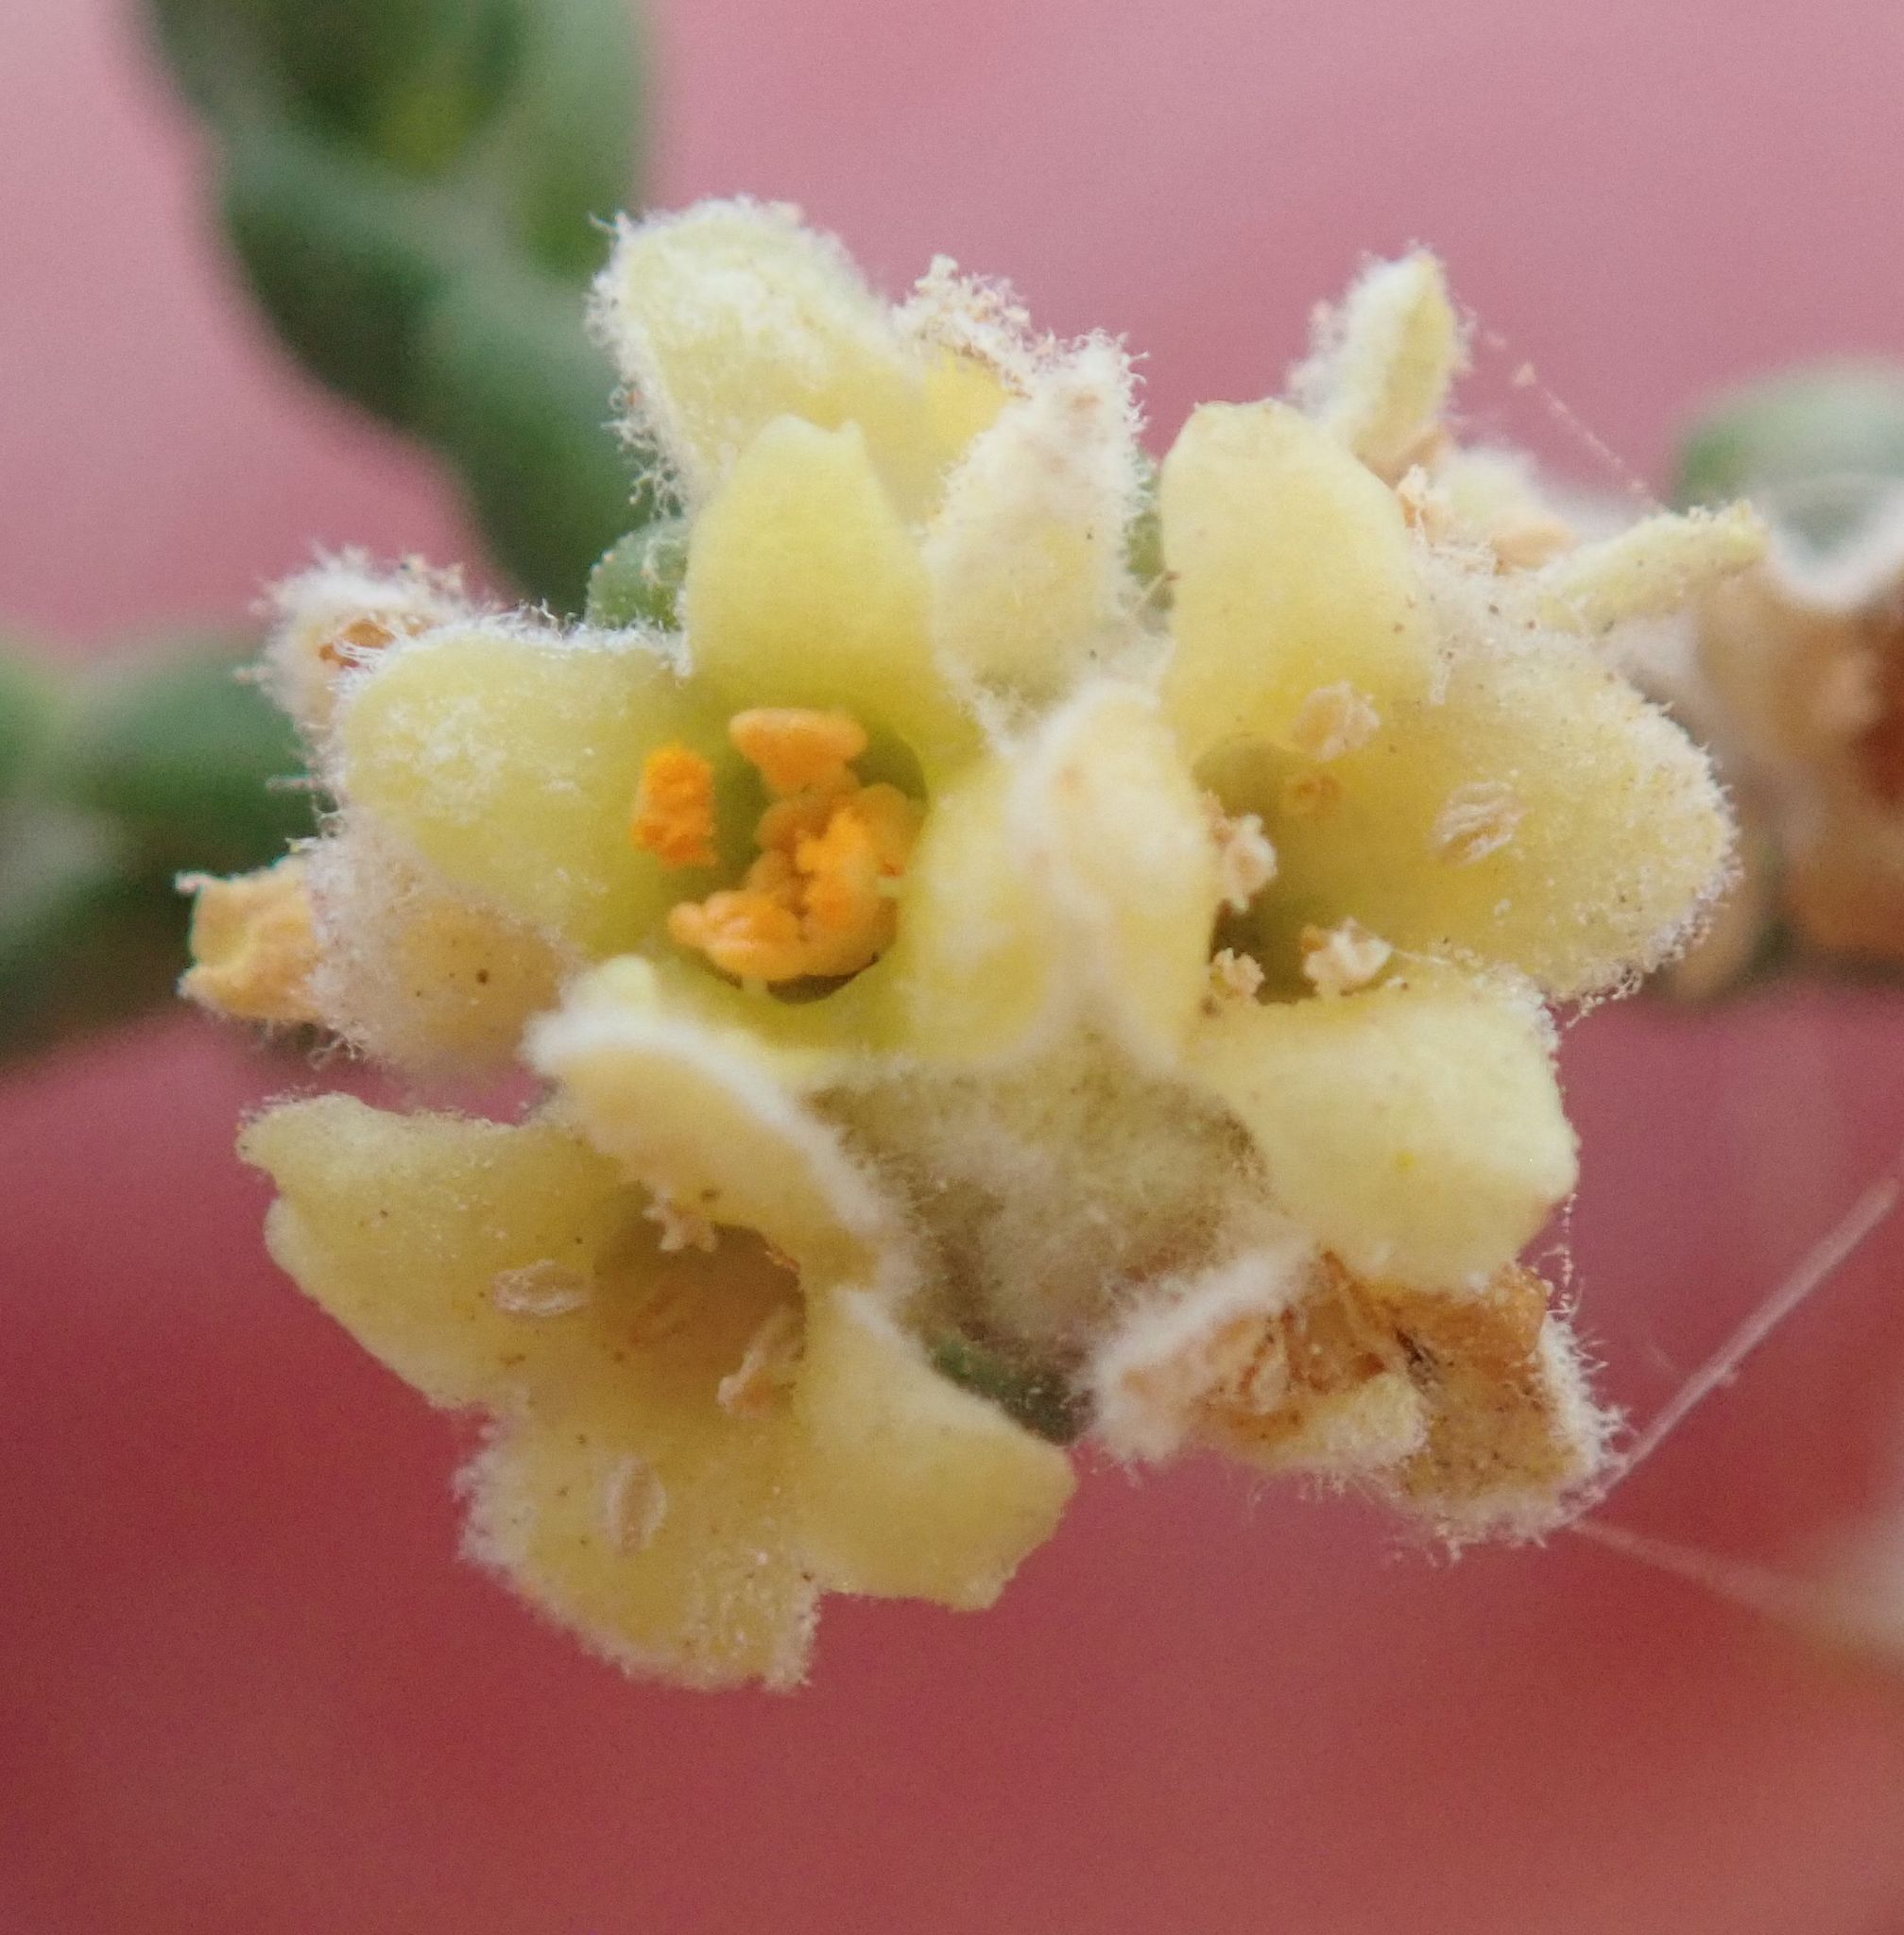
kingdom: Plantae
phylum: Tracheophyta
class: Magnoliopsida
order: Malvales
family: Thymelaeaceae
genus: Thymelaea
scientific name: Thymelaea hirsuta
